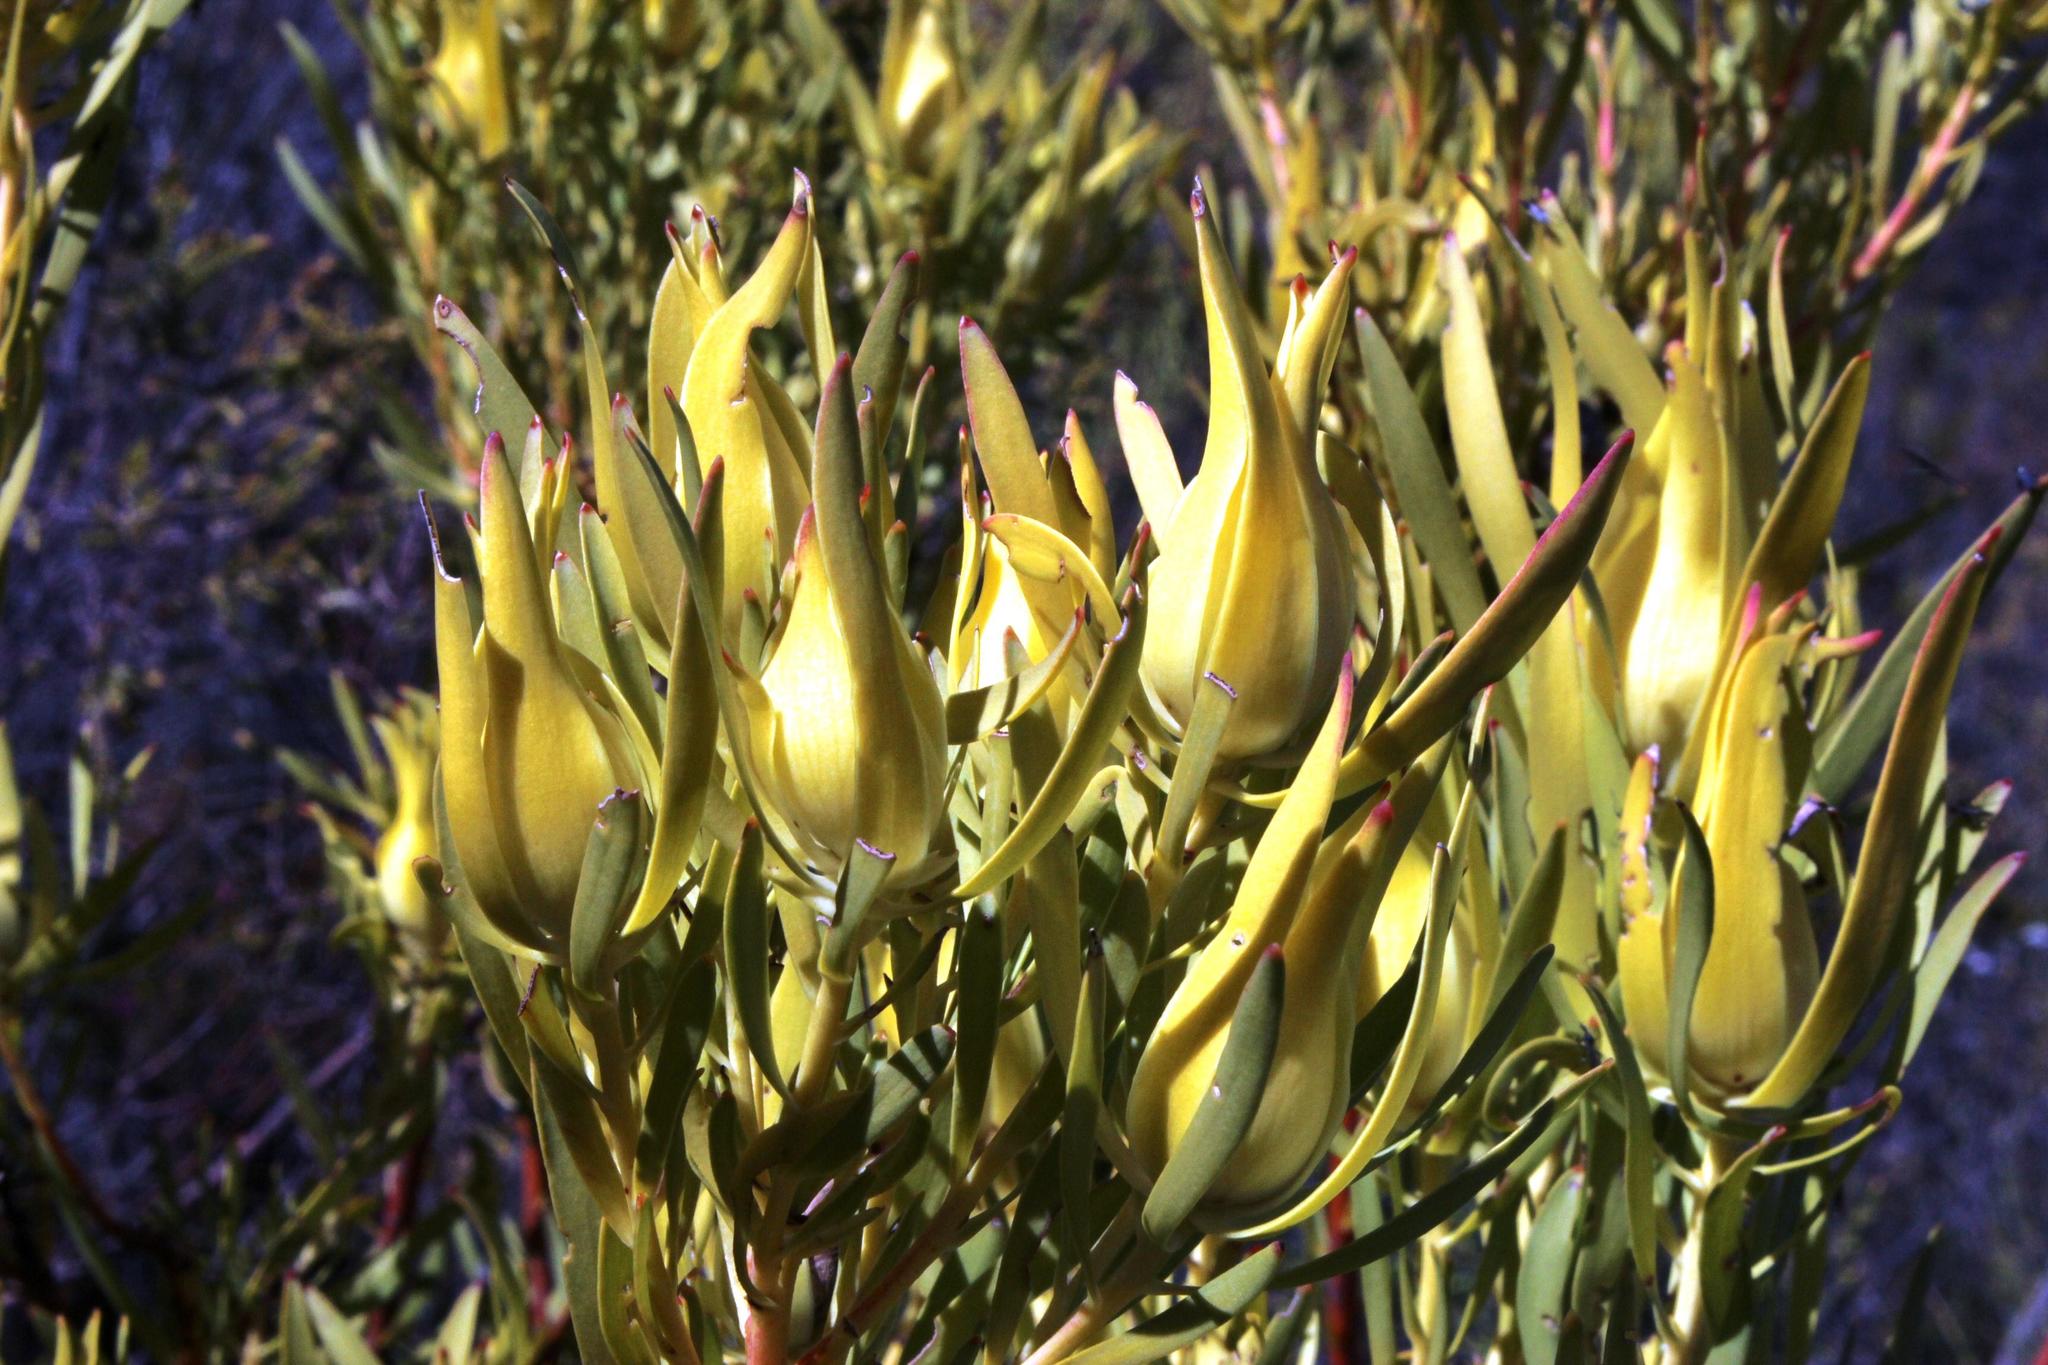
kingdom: Plantae
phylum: Tracheophyta
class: Magnoliopsida
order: Proteales
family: Proteaceae
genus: Leucadendron
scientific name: Leucadendron salignum
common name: Common sunshine conebush
